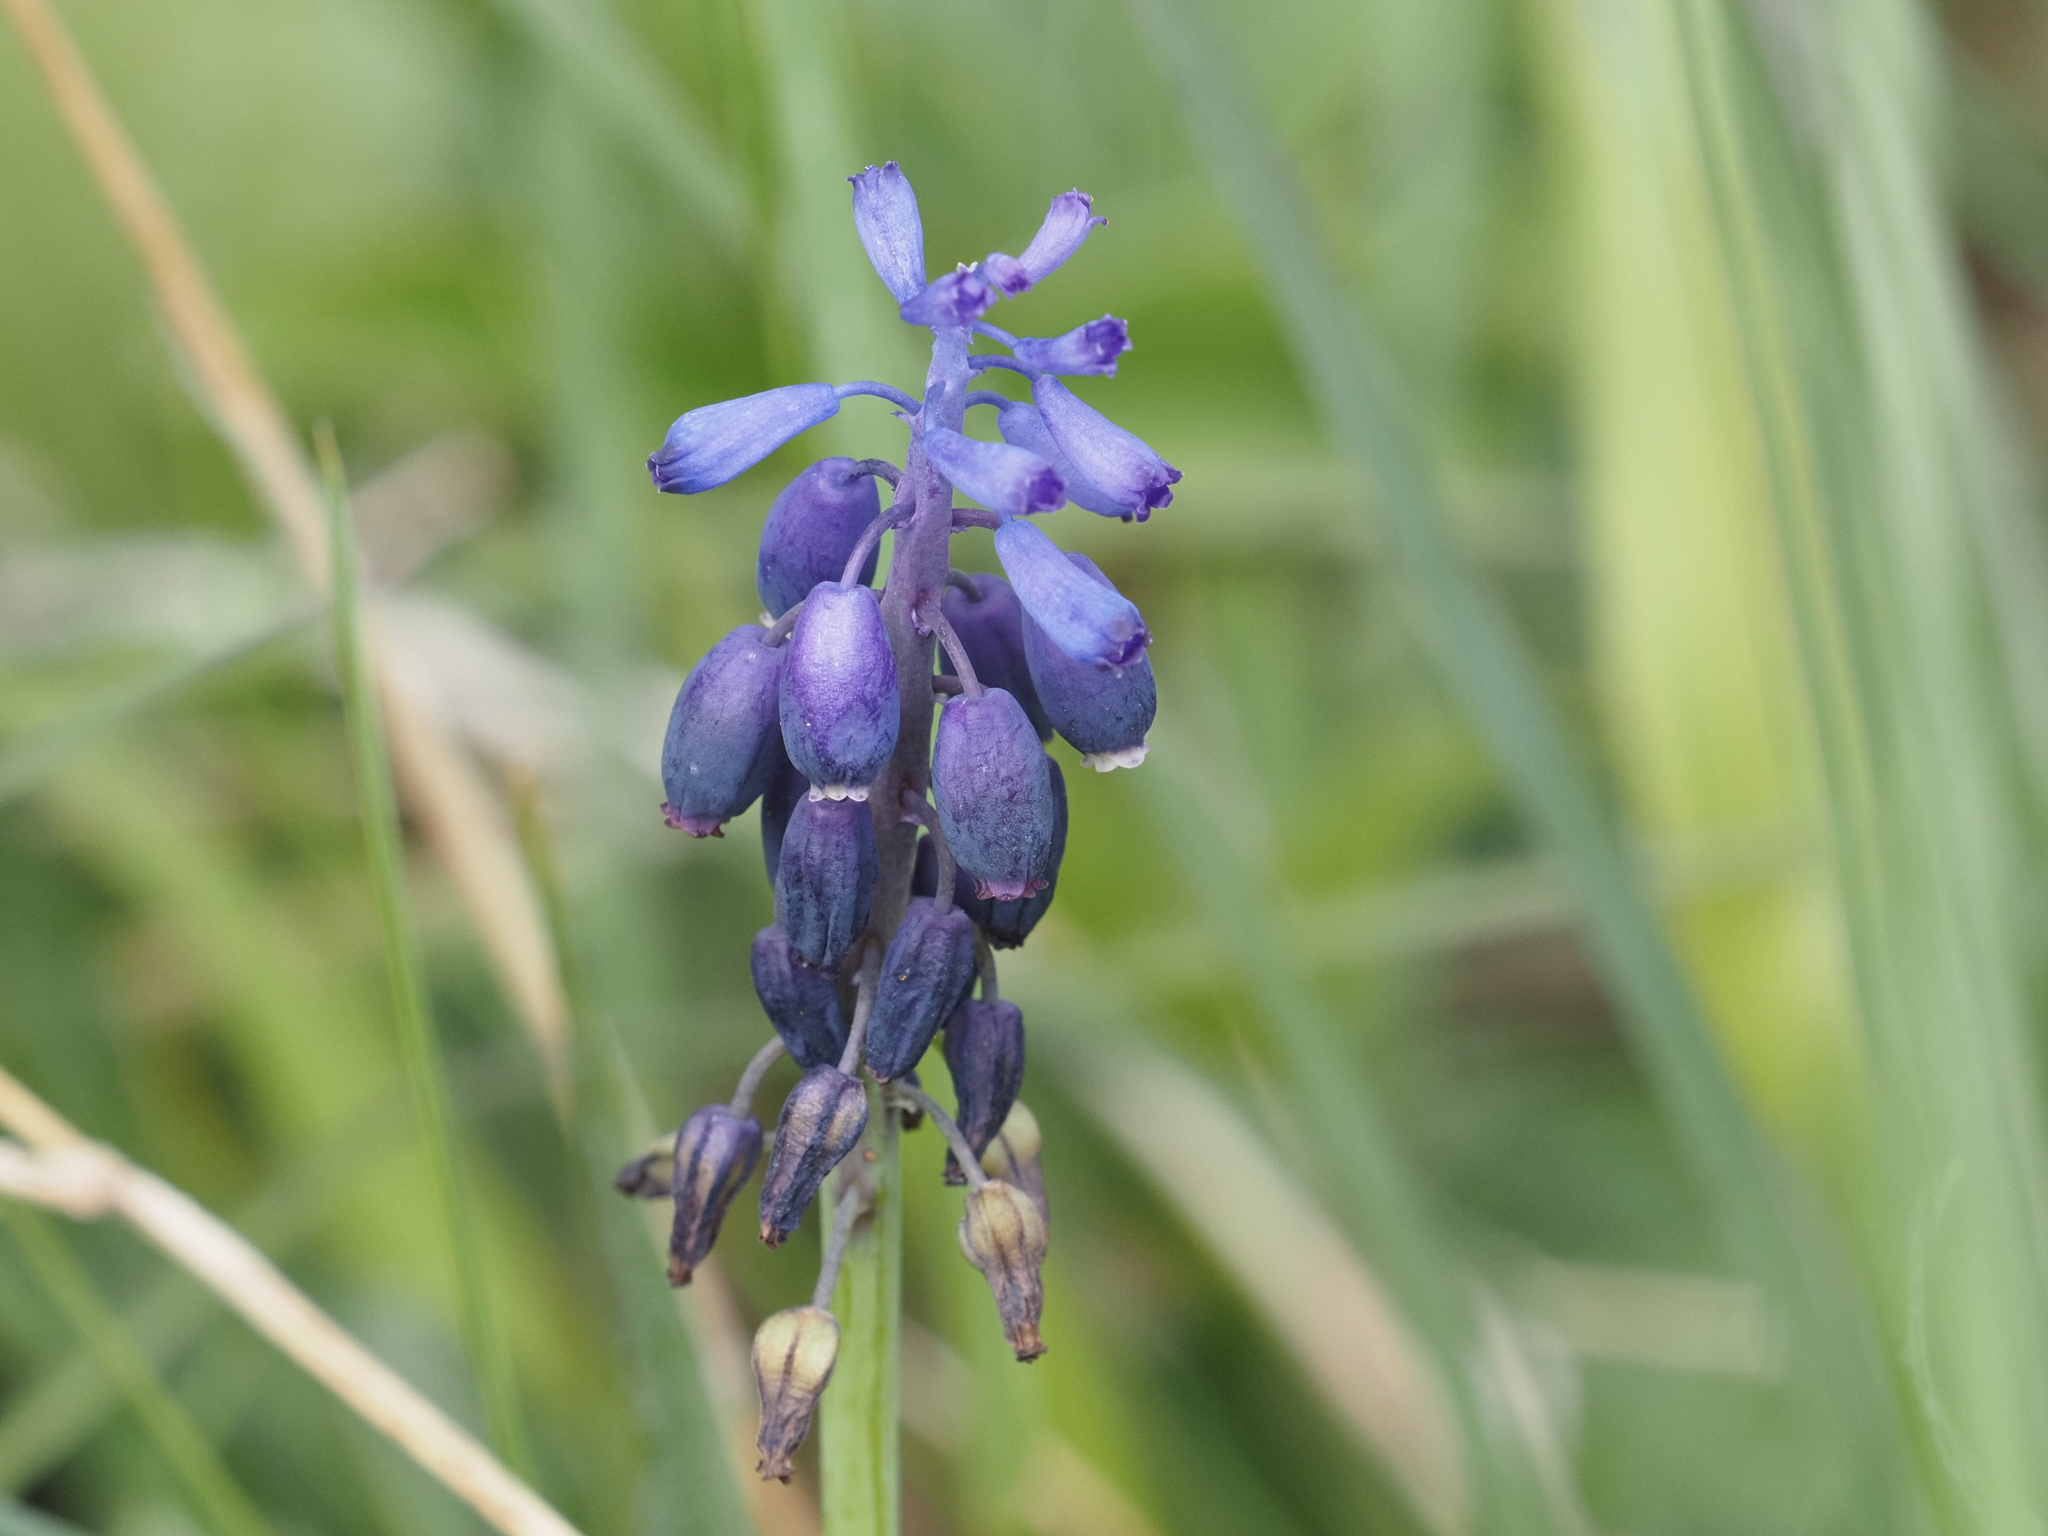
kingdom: Plantae
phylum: Tracheophyta
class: Liliopsida
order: Asparagales
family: Asparagaceae
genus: Muscari
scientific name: Muscari neglectum
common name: Grape-hyacinth
